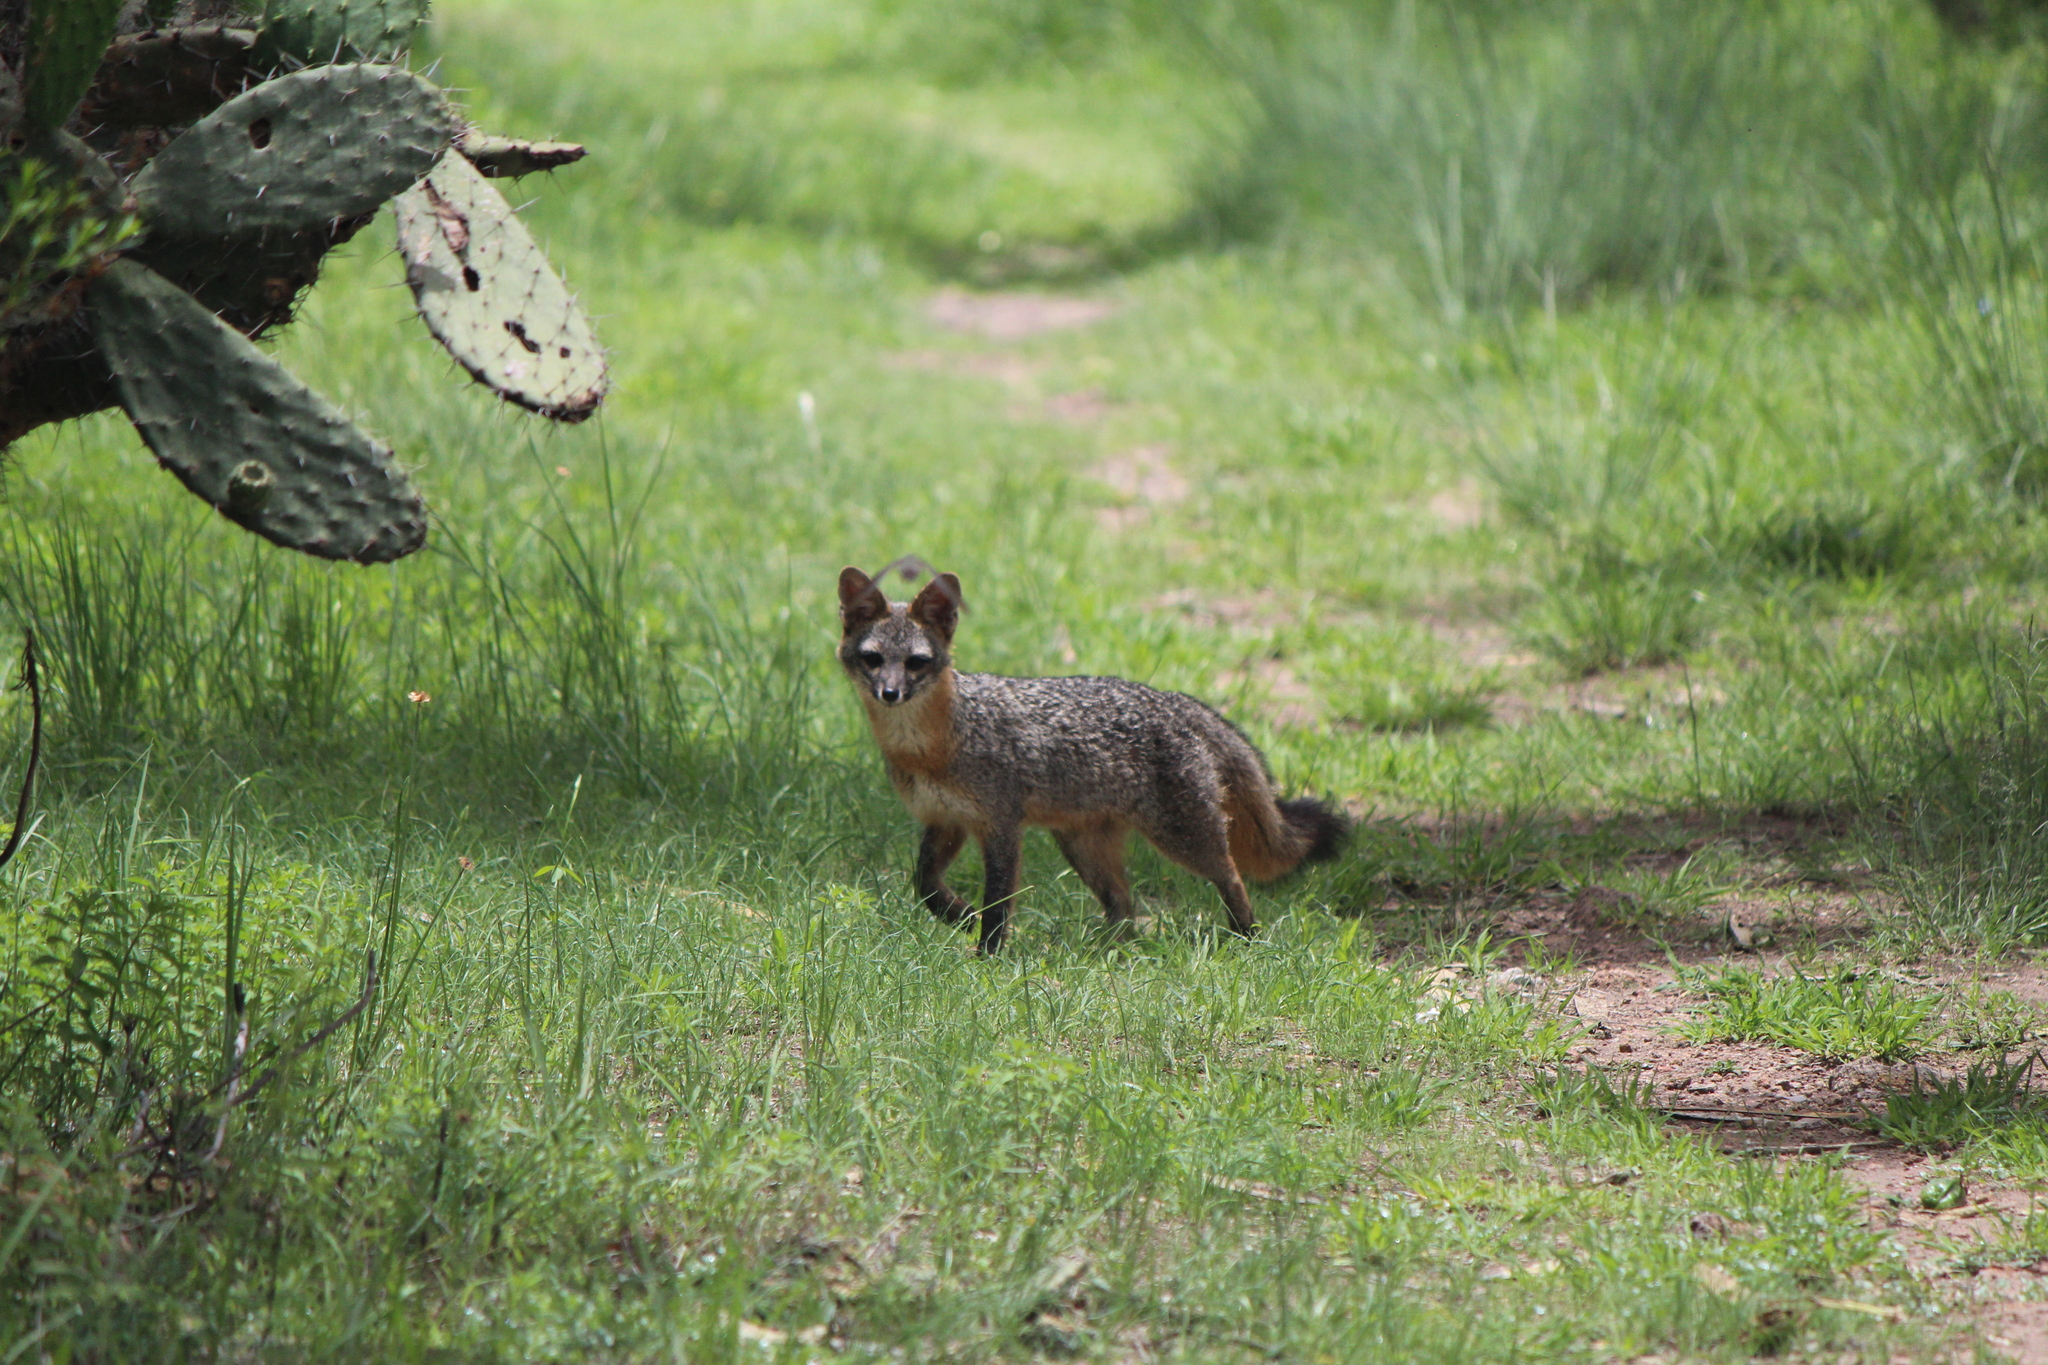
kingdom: Animalia
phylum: Chordata
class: Mammalia
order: Carnivora
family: Canidae
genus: Urocyon
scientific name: Urocyon cinereoargenteus
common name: Gray fox
